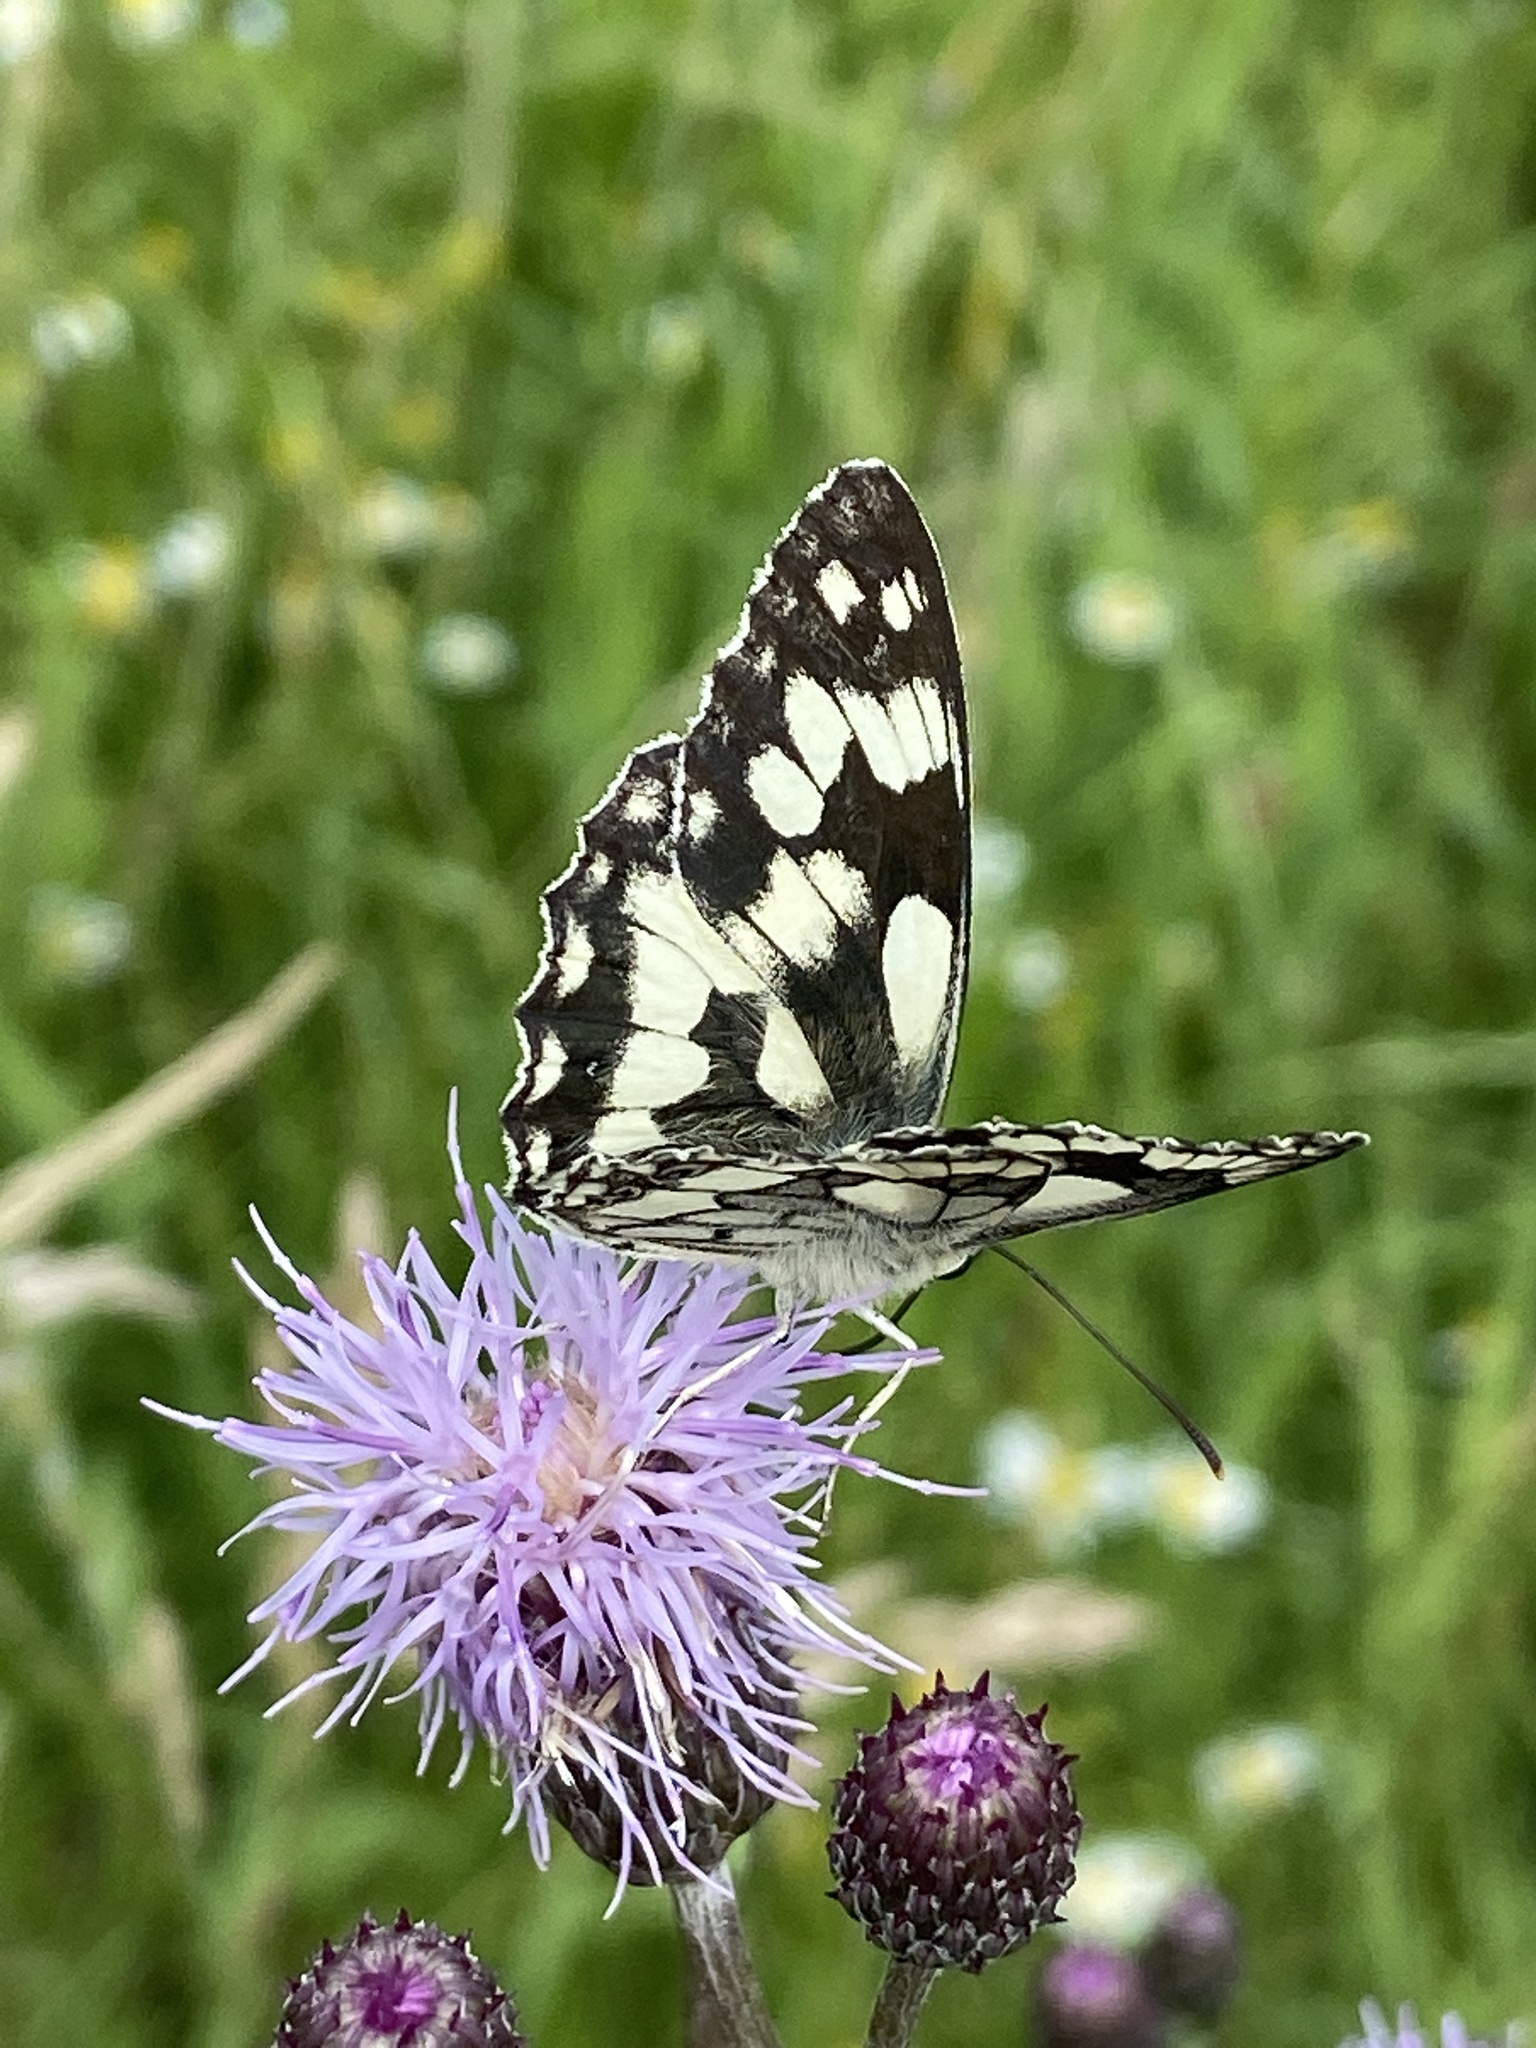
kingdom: Animalia
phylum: Arthropoda
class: Insecta
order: Lepidoptera
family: Nymphalidae
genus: Melanargia
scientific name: Melanargia galathea
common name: Marbled white
